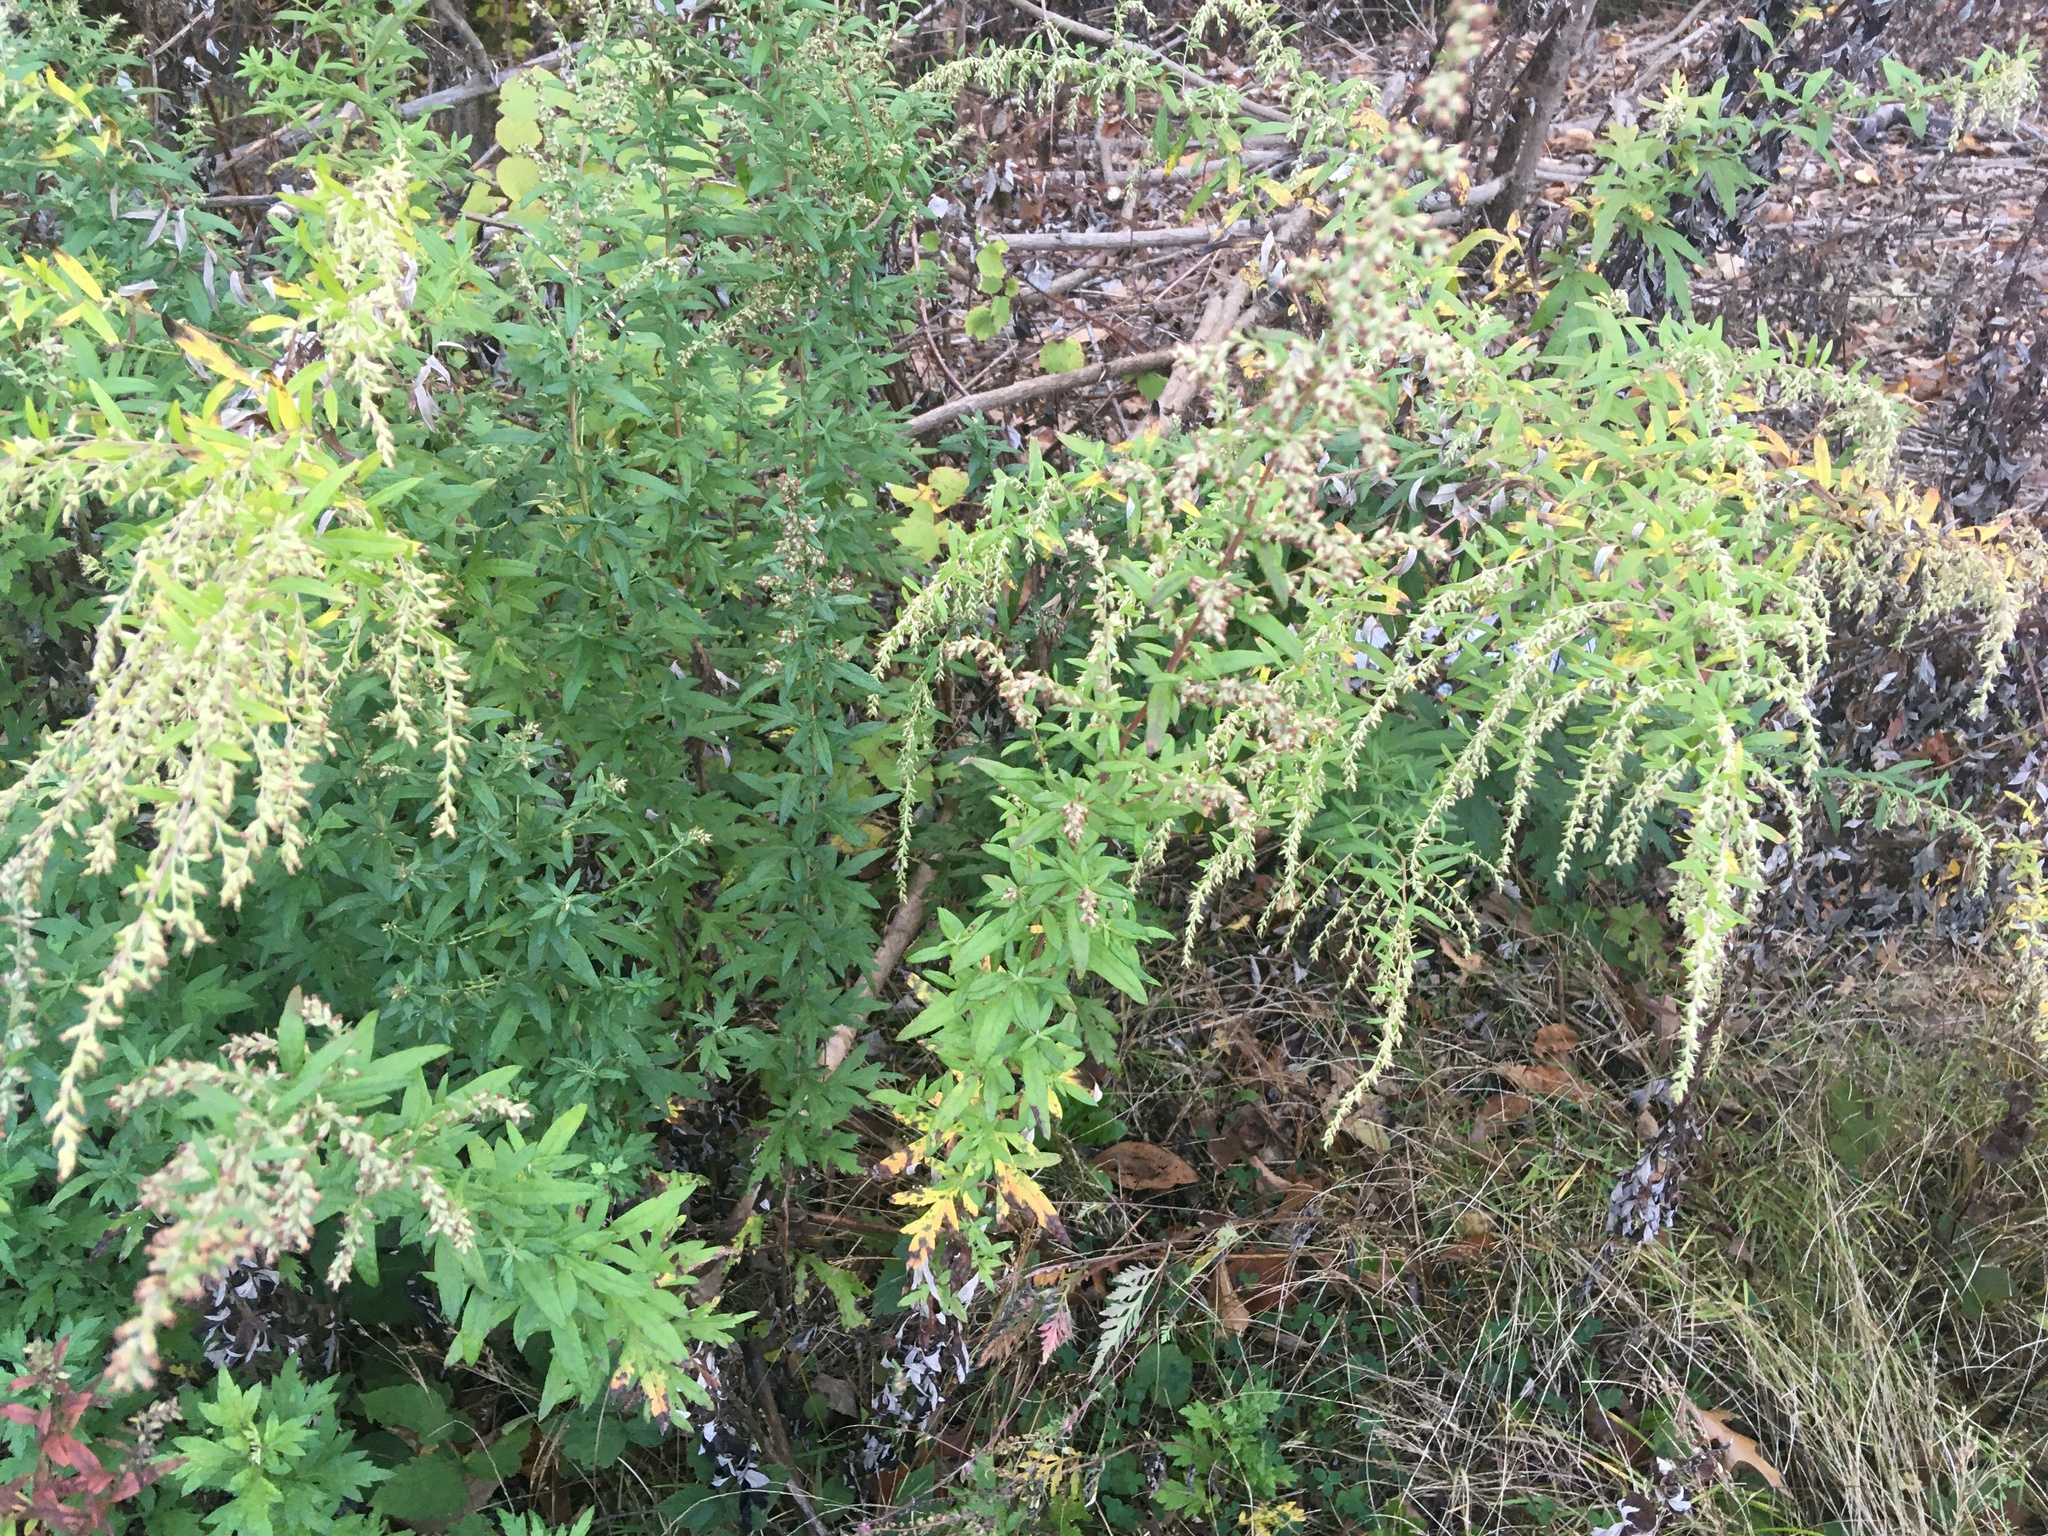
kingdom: Plantae
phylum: Tracheophyta
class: Magnoliopsida
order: Asterales
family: Asteraceae
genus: Artemisia
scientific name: Artemisia vulgaris
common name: Mugwort
